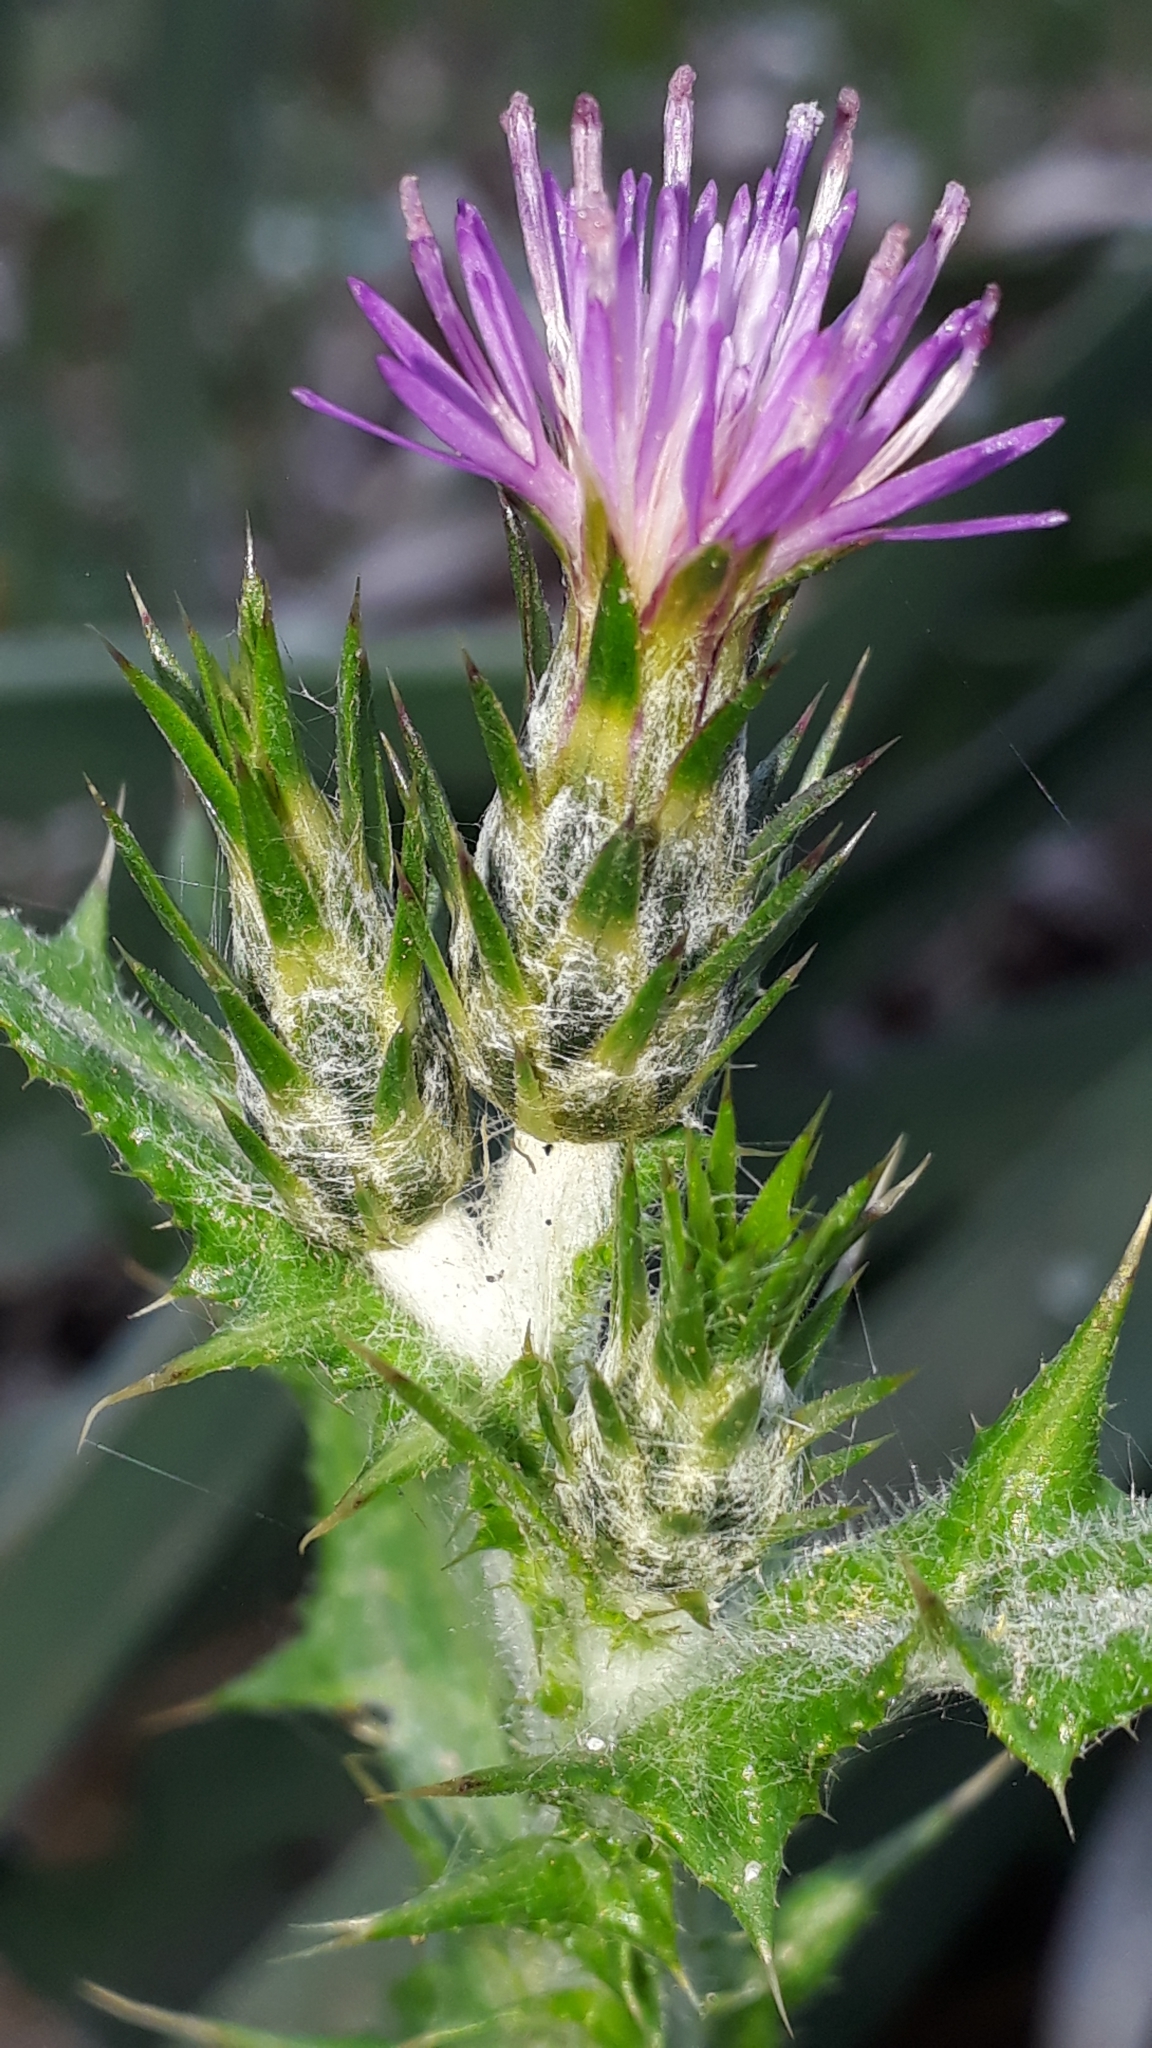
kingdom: Plantae
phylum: Tracheophyta
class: Magnoliopsida
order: Asterales
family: Asteraceae
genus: Carduus
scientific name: Carduus pycnocephalus
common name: Plymouth thistle
